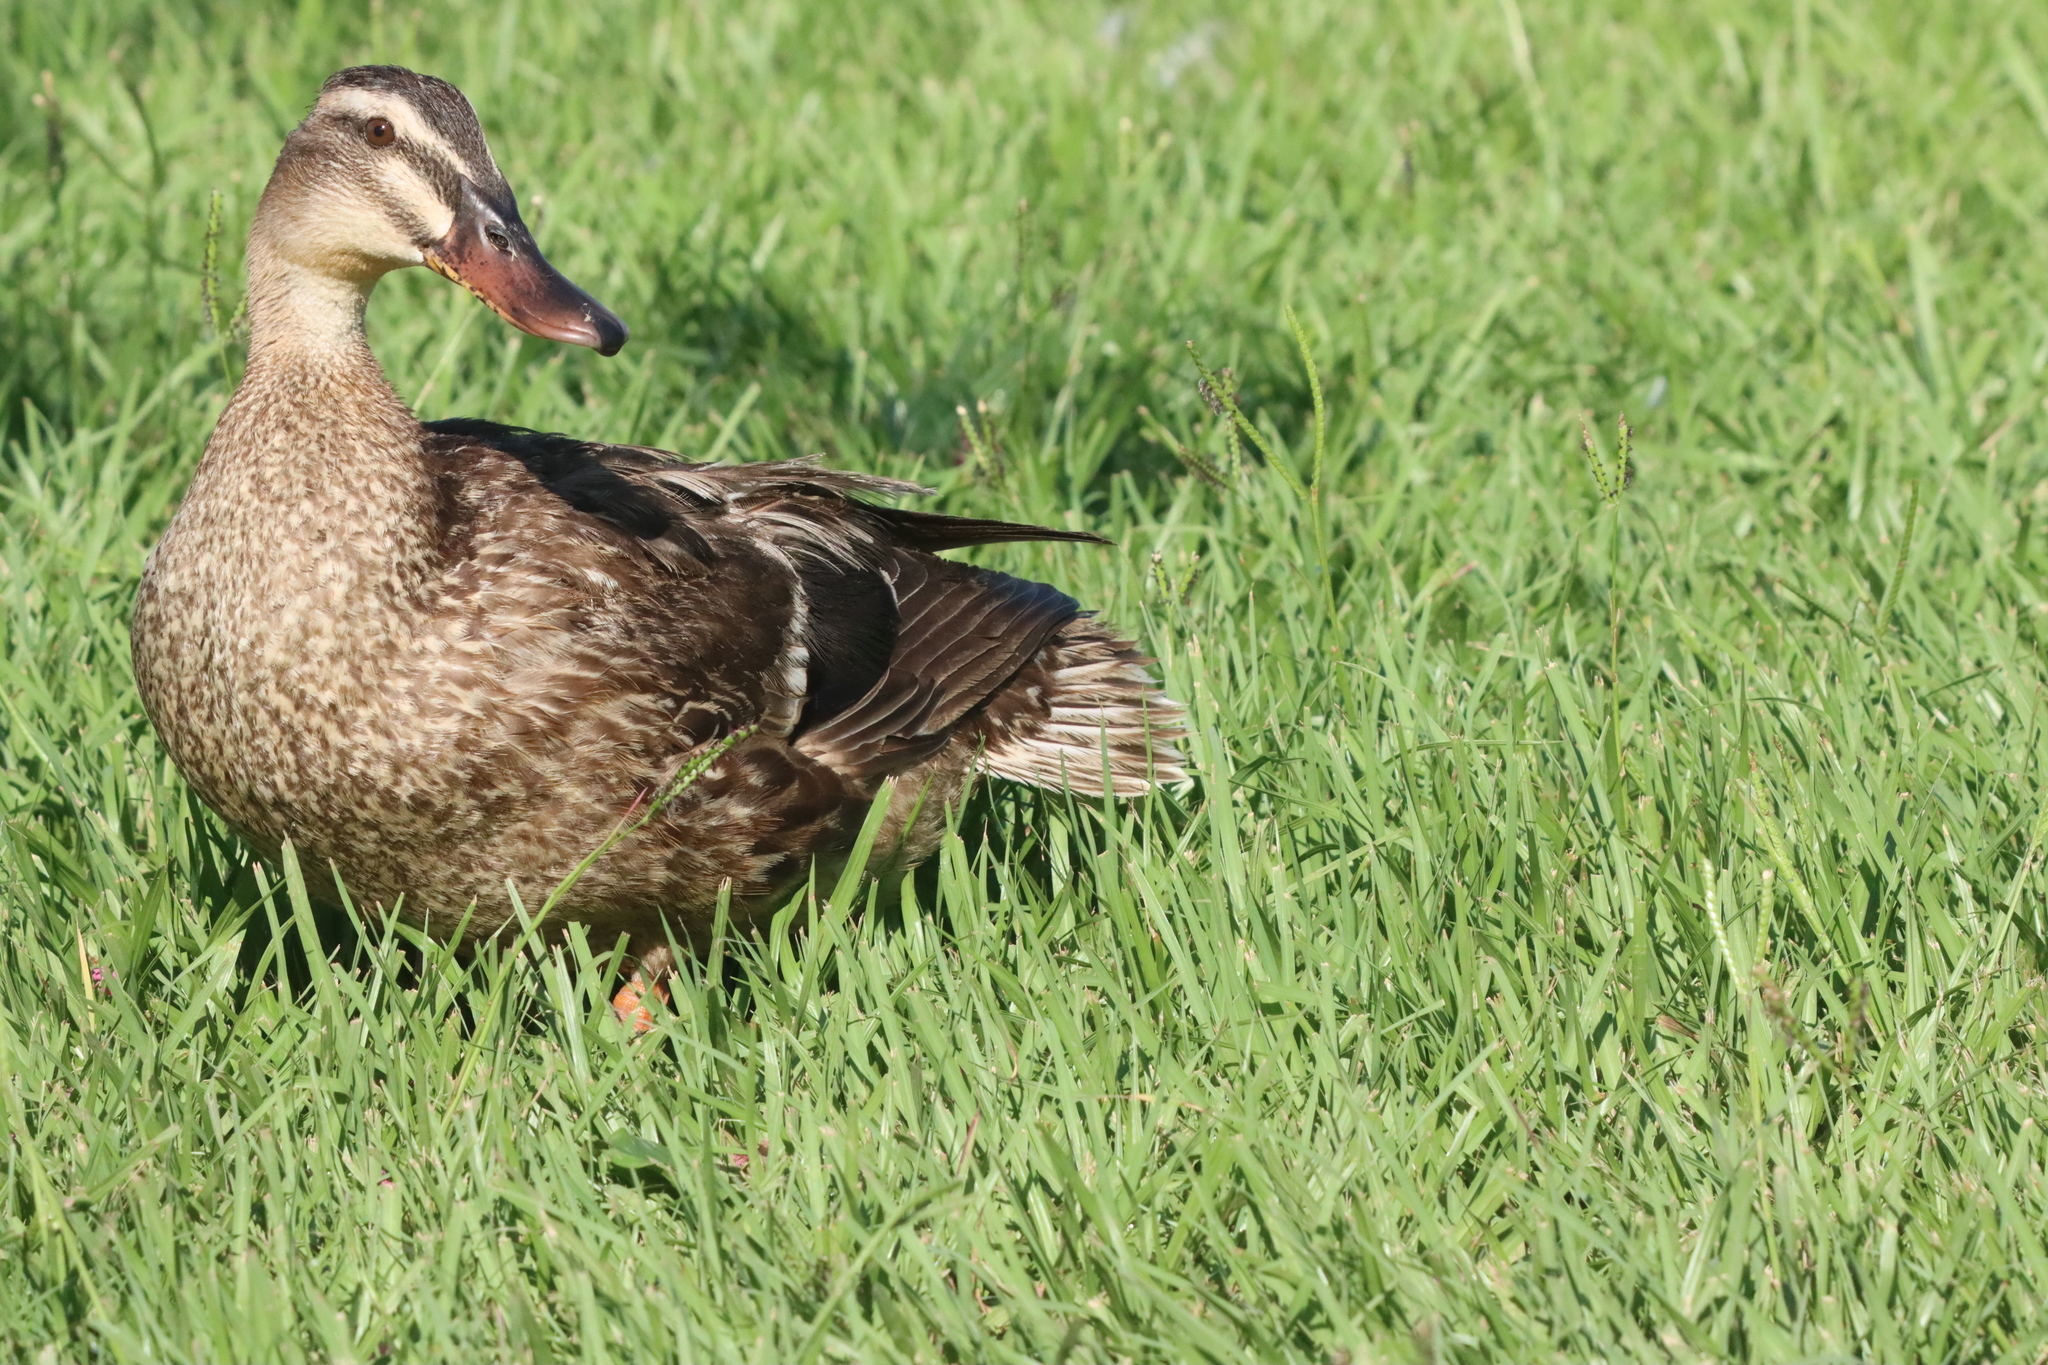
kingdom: Animalia
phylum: Chordata
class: Aves
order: Anseriformes
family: Anatidae
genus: Anas
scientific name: Anas platyrhynchos
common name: Mallard
